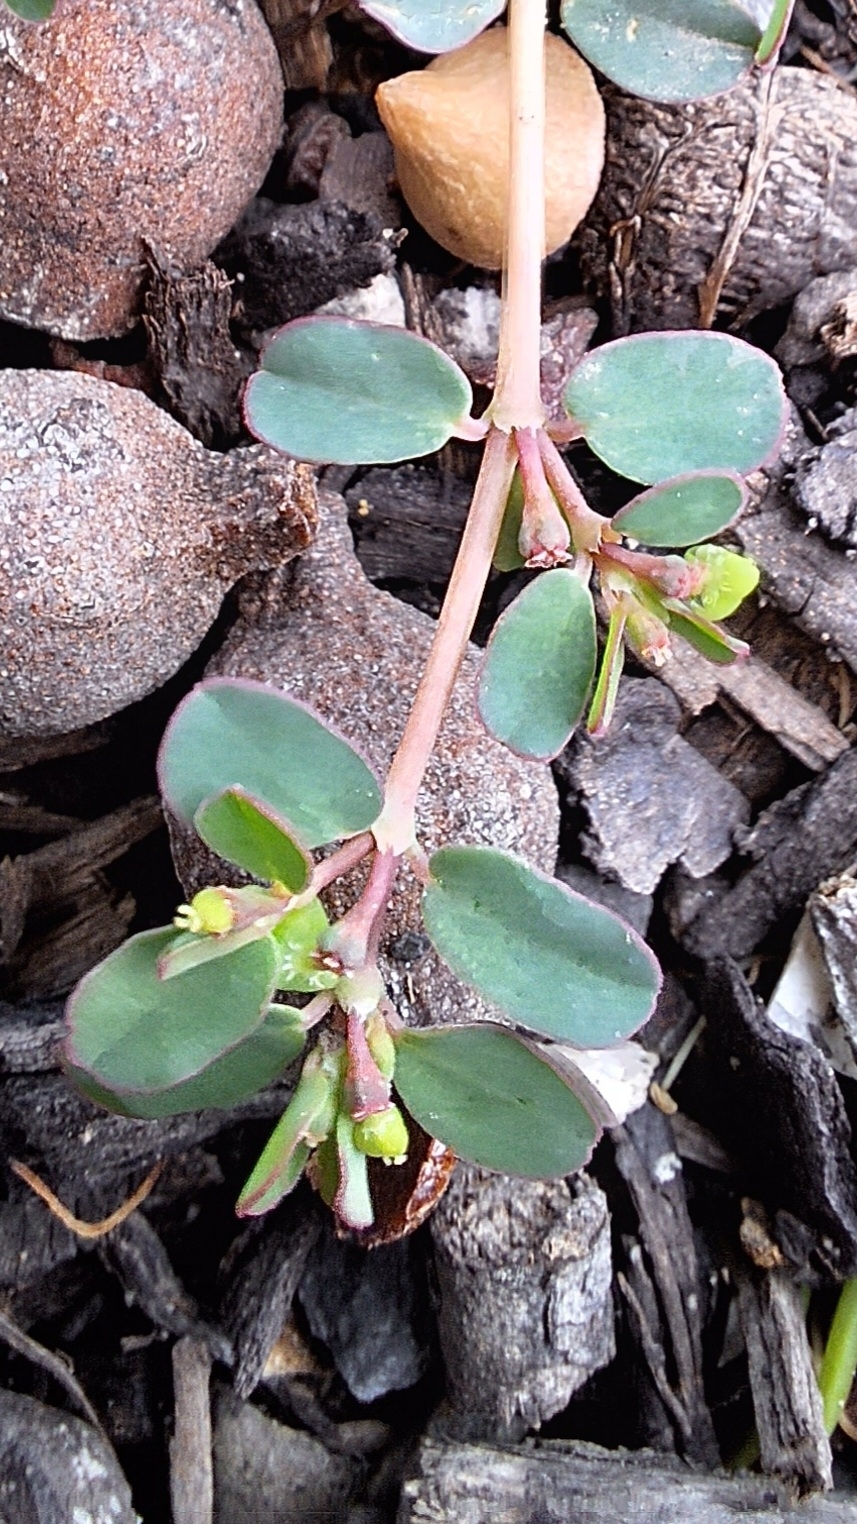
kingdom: Plantae
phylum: Tracheophyta
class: Magnoliopsida
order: Malpighiales
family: Euphorbiaceae
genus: Euphorbia
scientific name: Euphorbia serpens
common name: Matted sandmat
